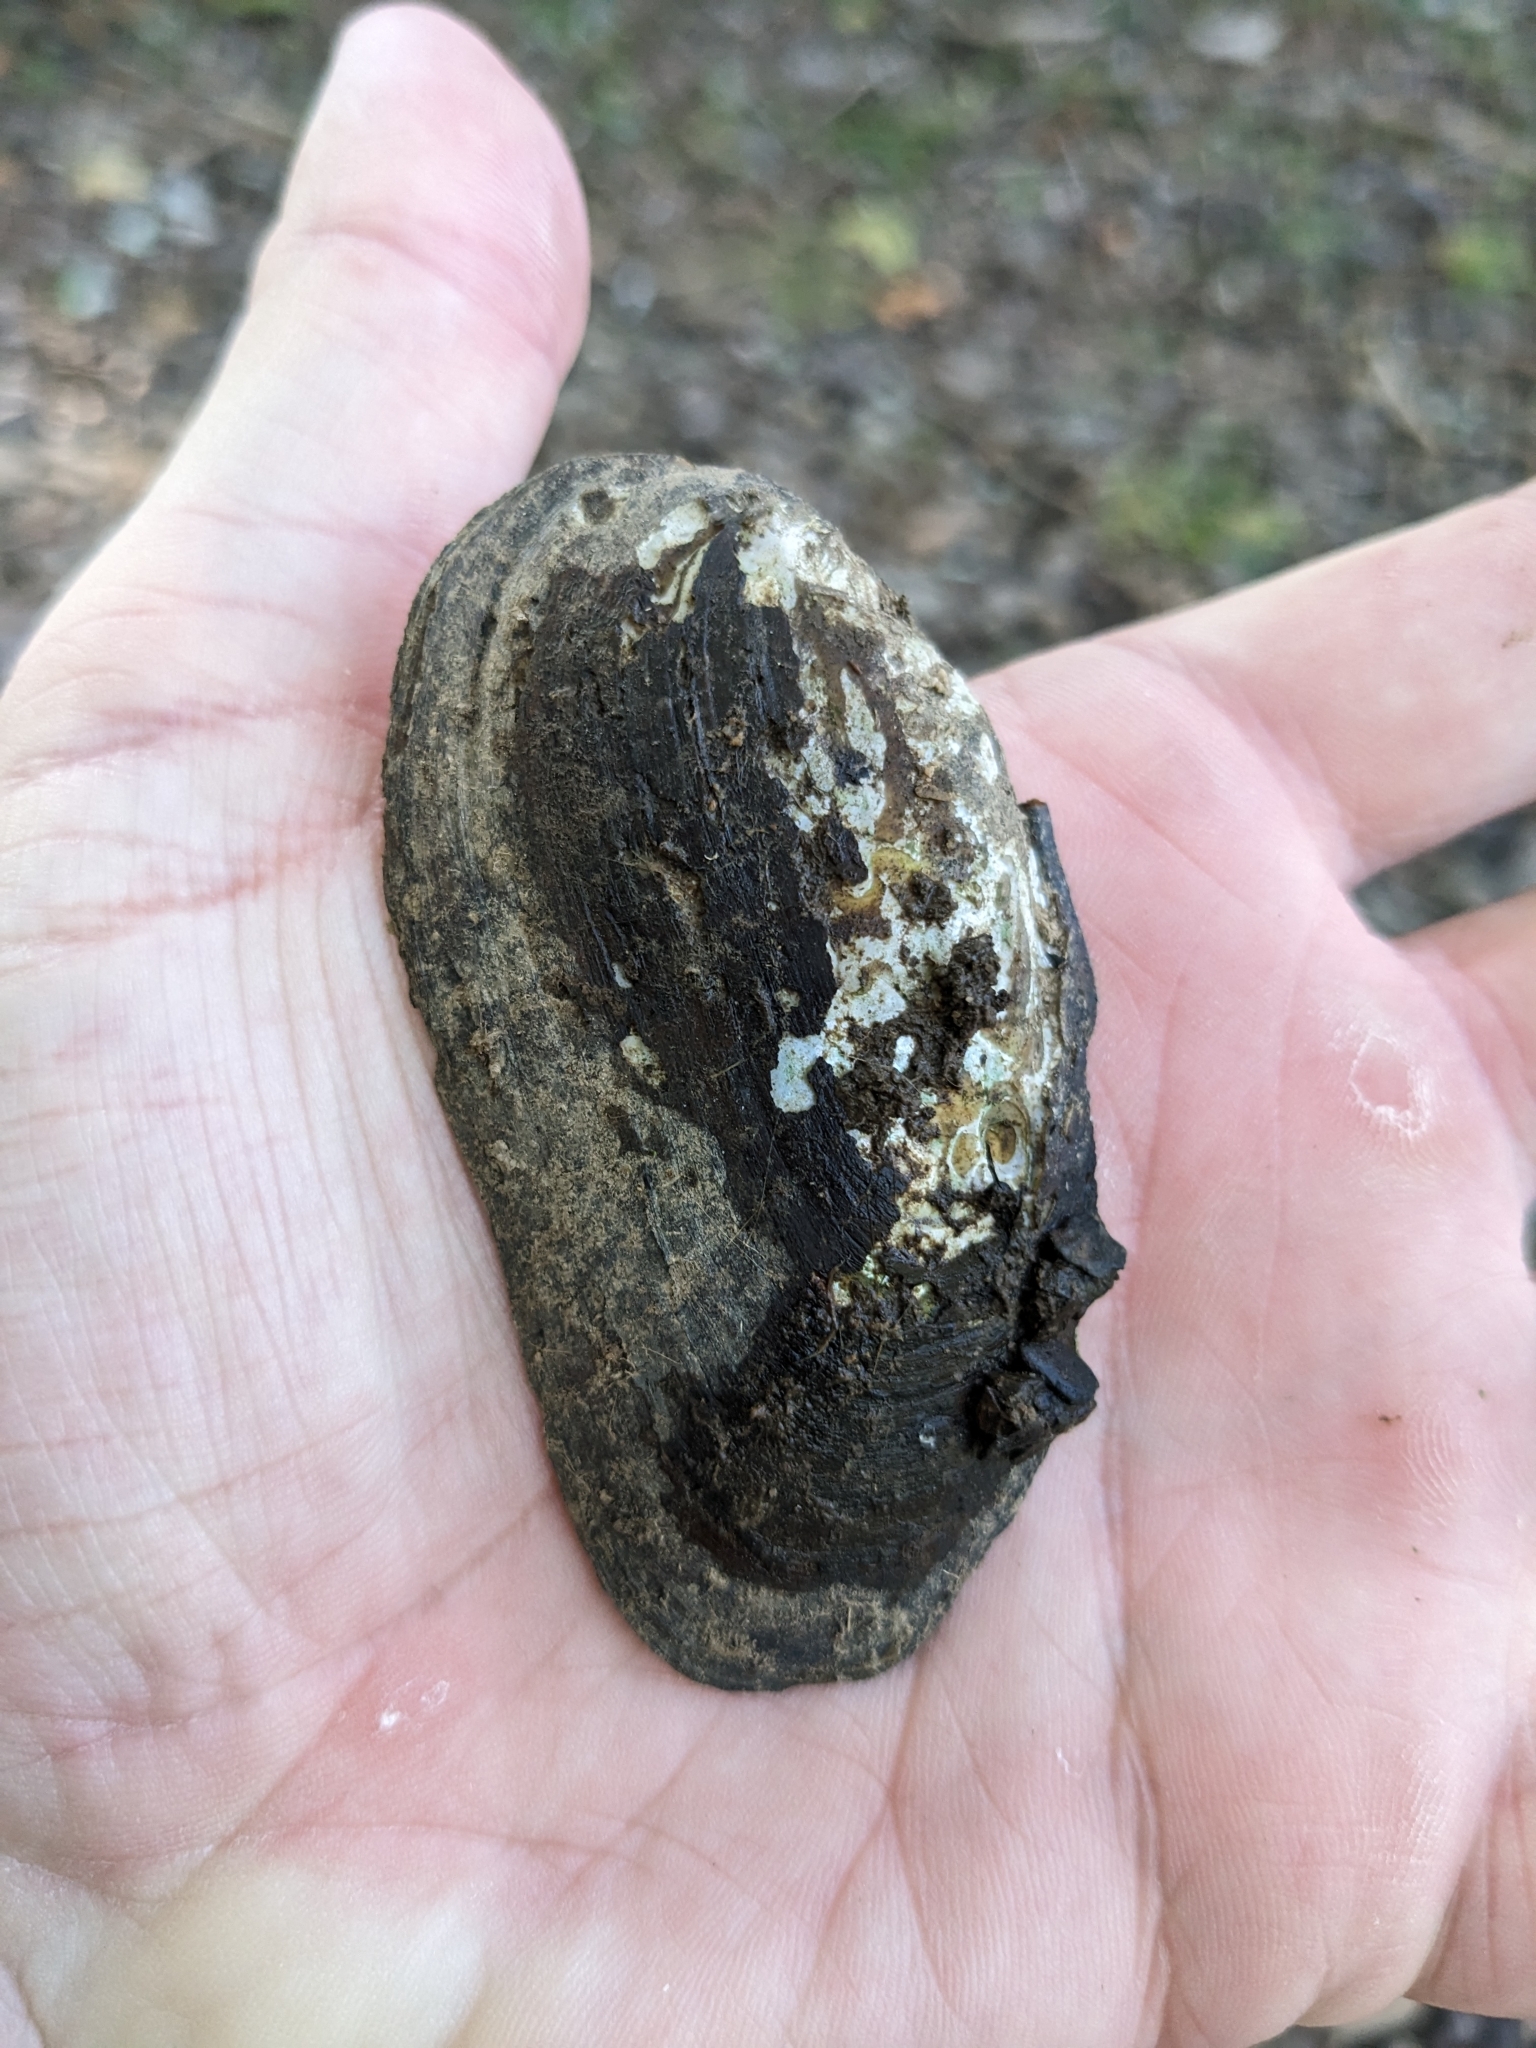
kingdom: Animalia
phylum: Mollusca
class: Bivalvia
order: Unionida
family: Unionidae
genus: Elliptio
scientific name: Elliptio complanata
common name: Eastern elliptio
